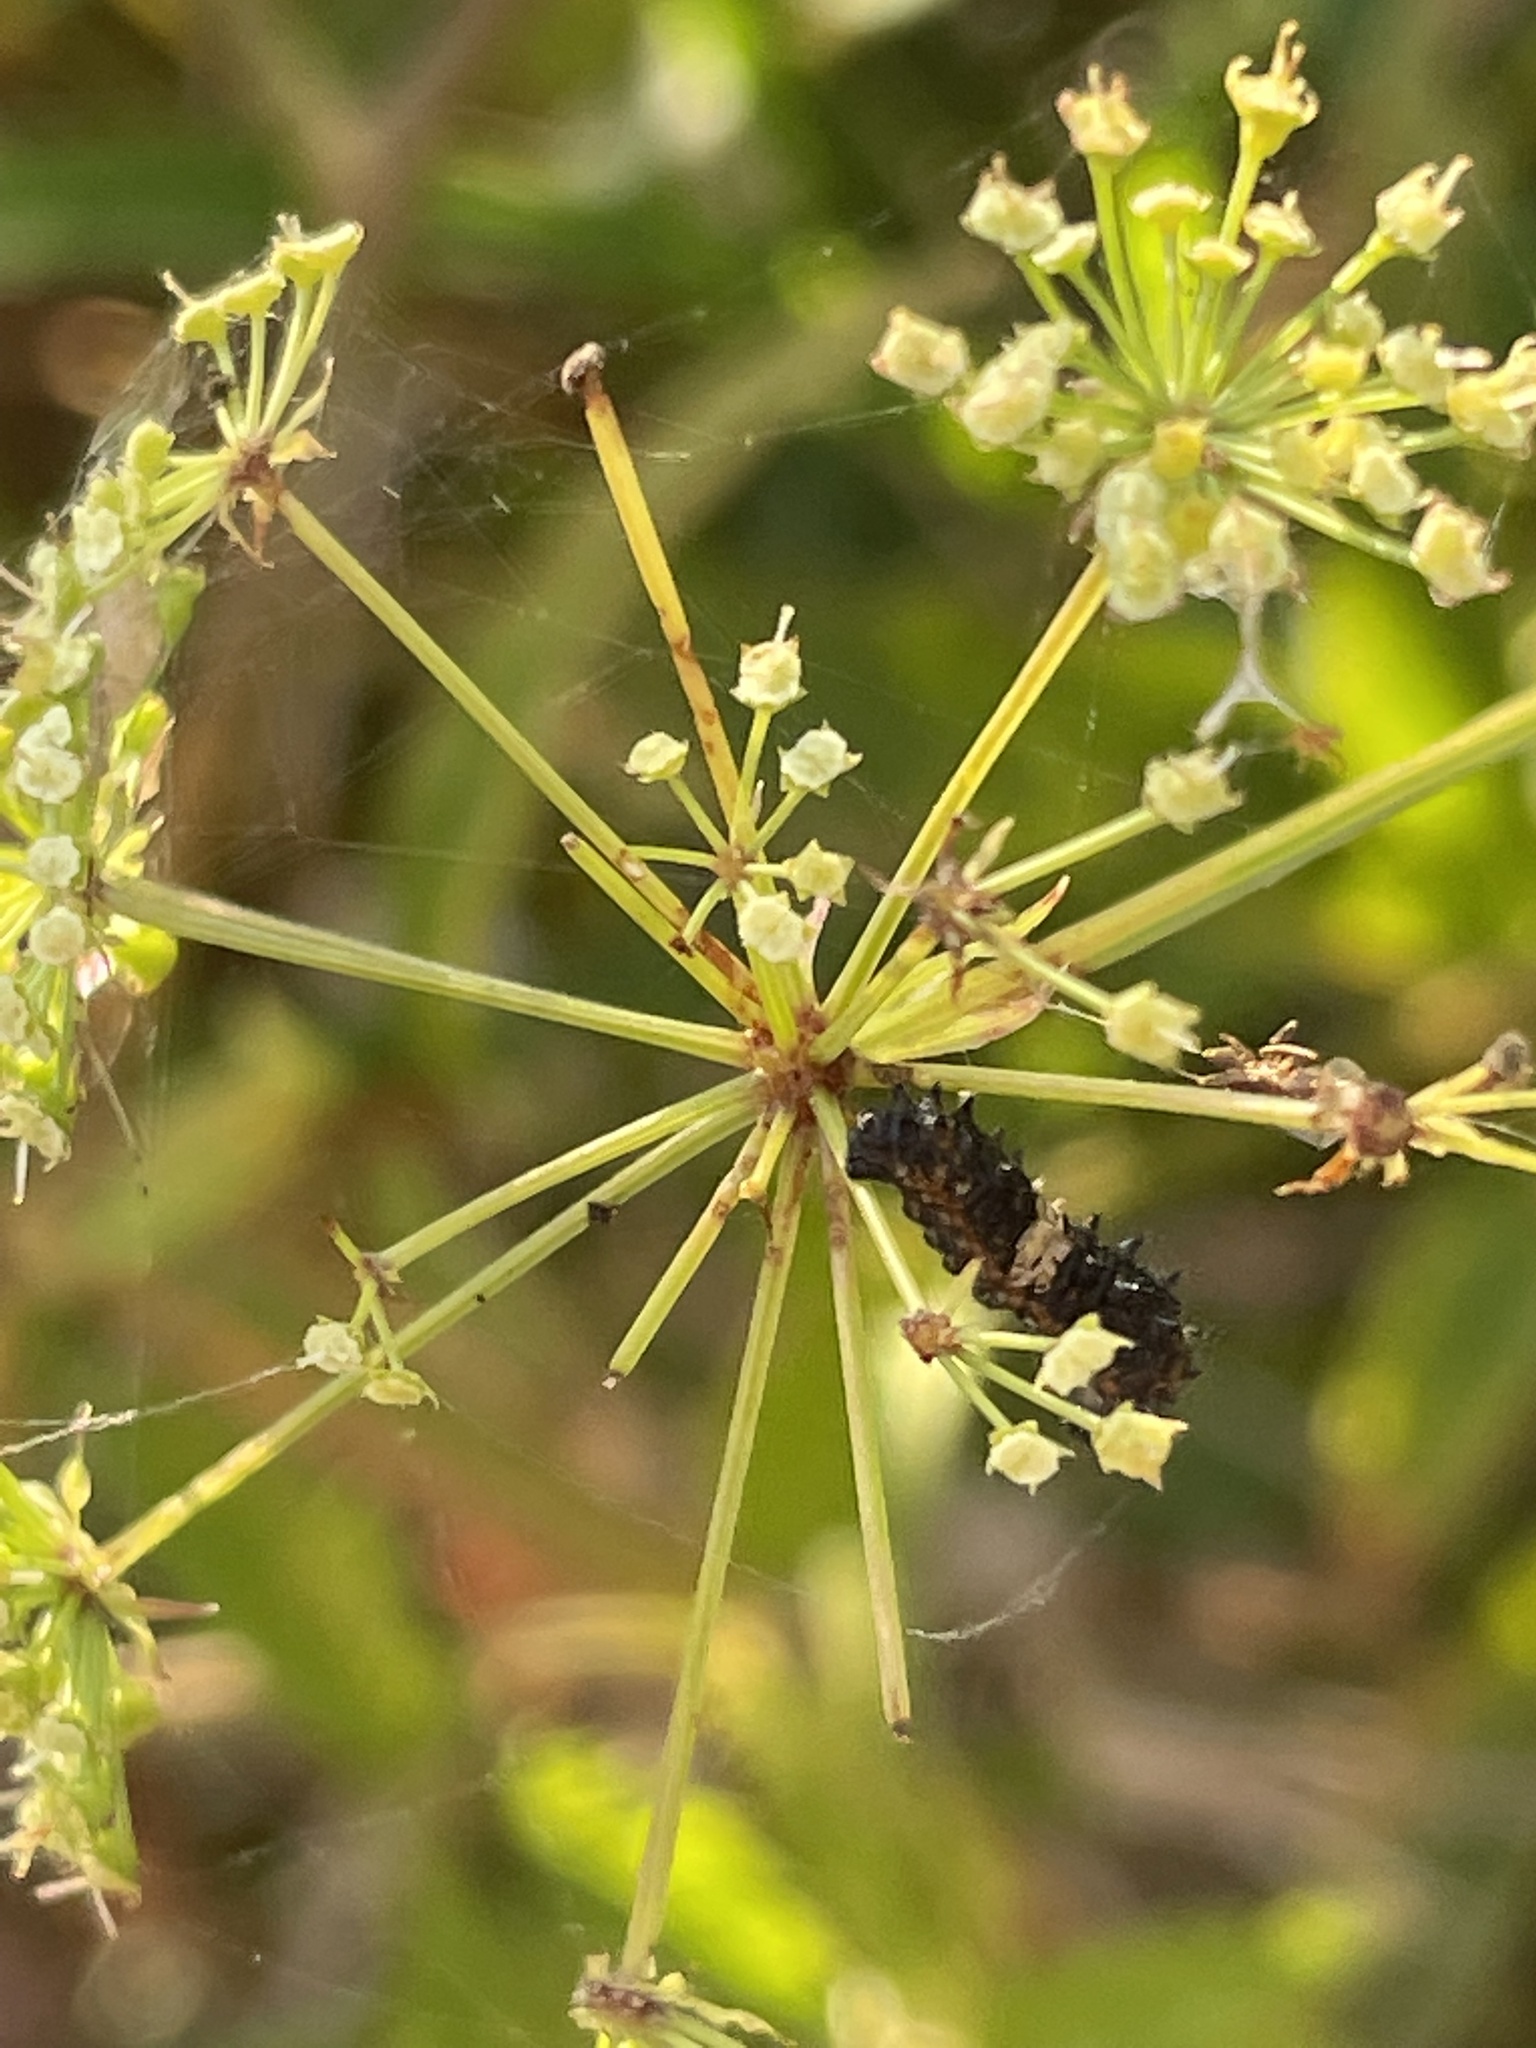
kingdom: Animalia
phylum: Arthropoda
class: Insecta
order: Lepidoptera
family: Papilionidae
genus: Papilio
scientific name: Papilio polyxenes
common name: Black swallowtail
